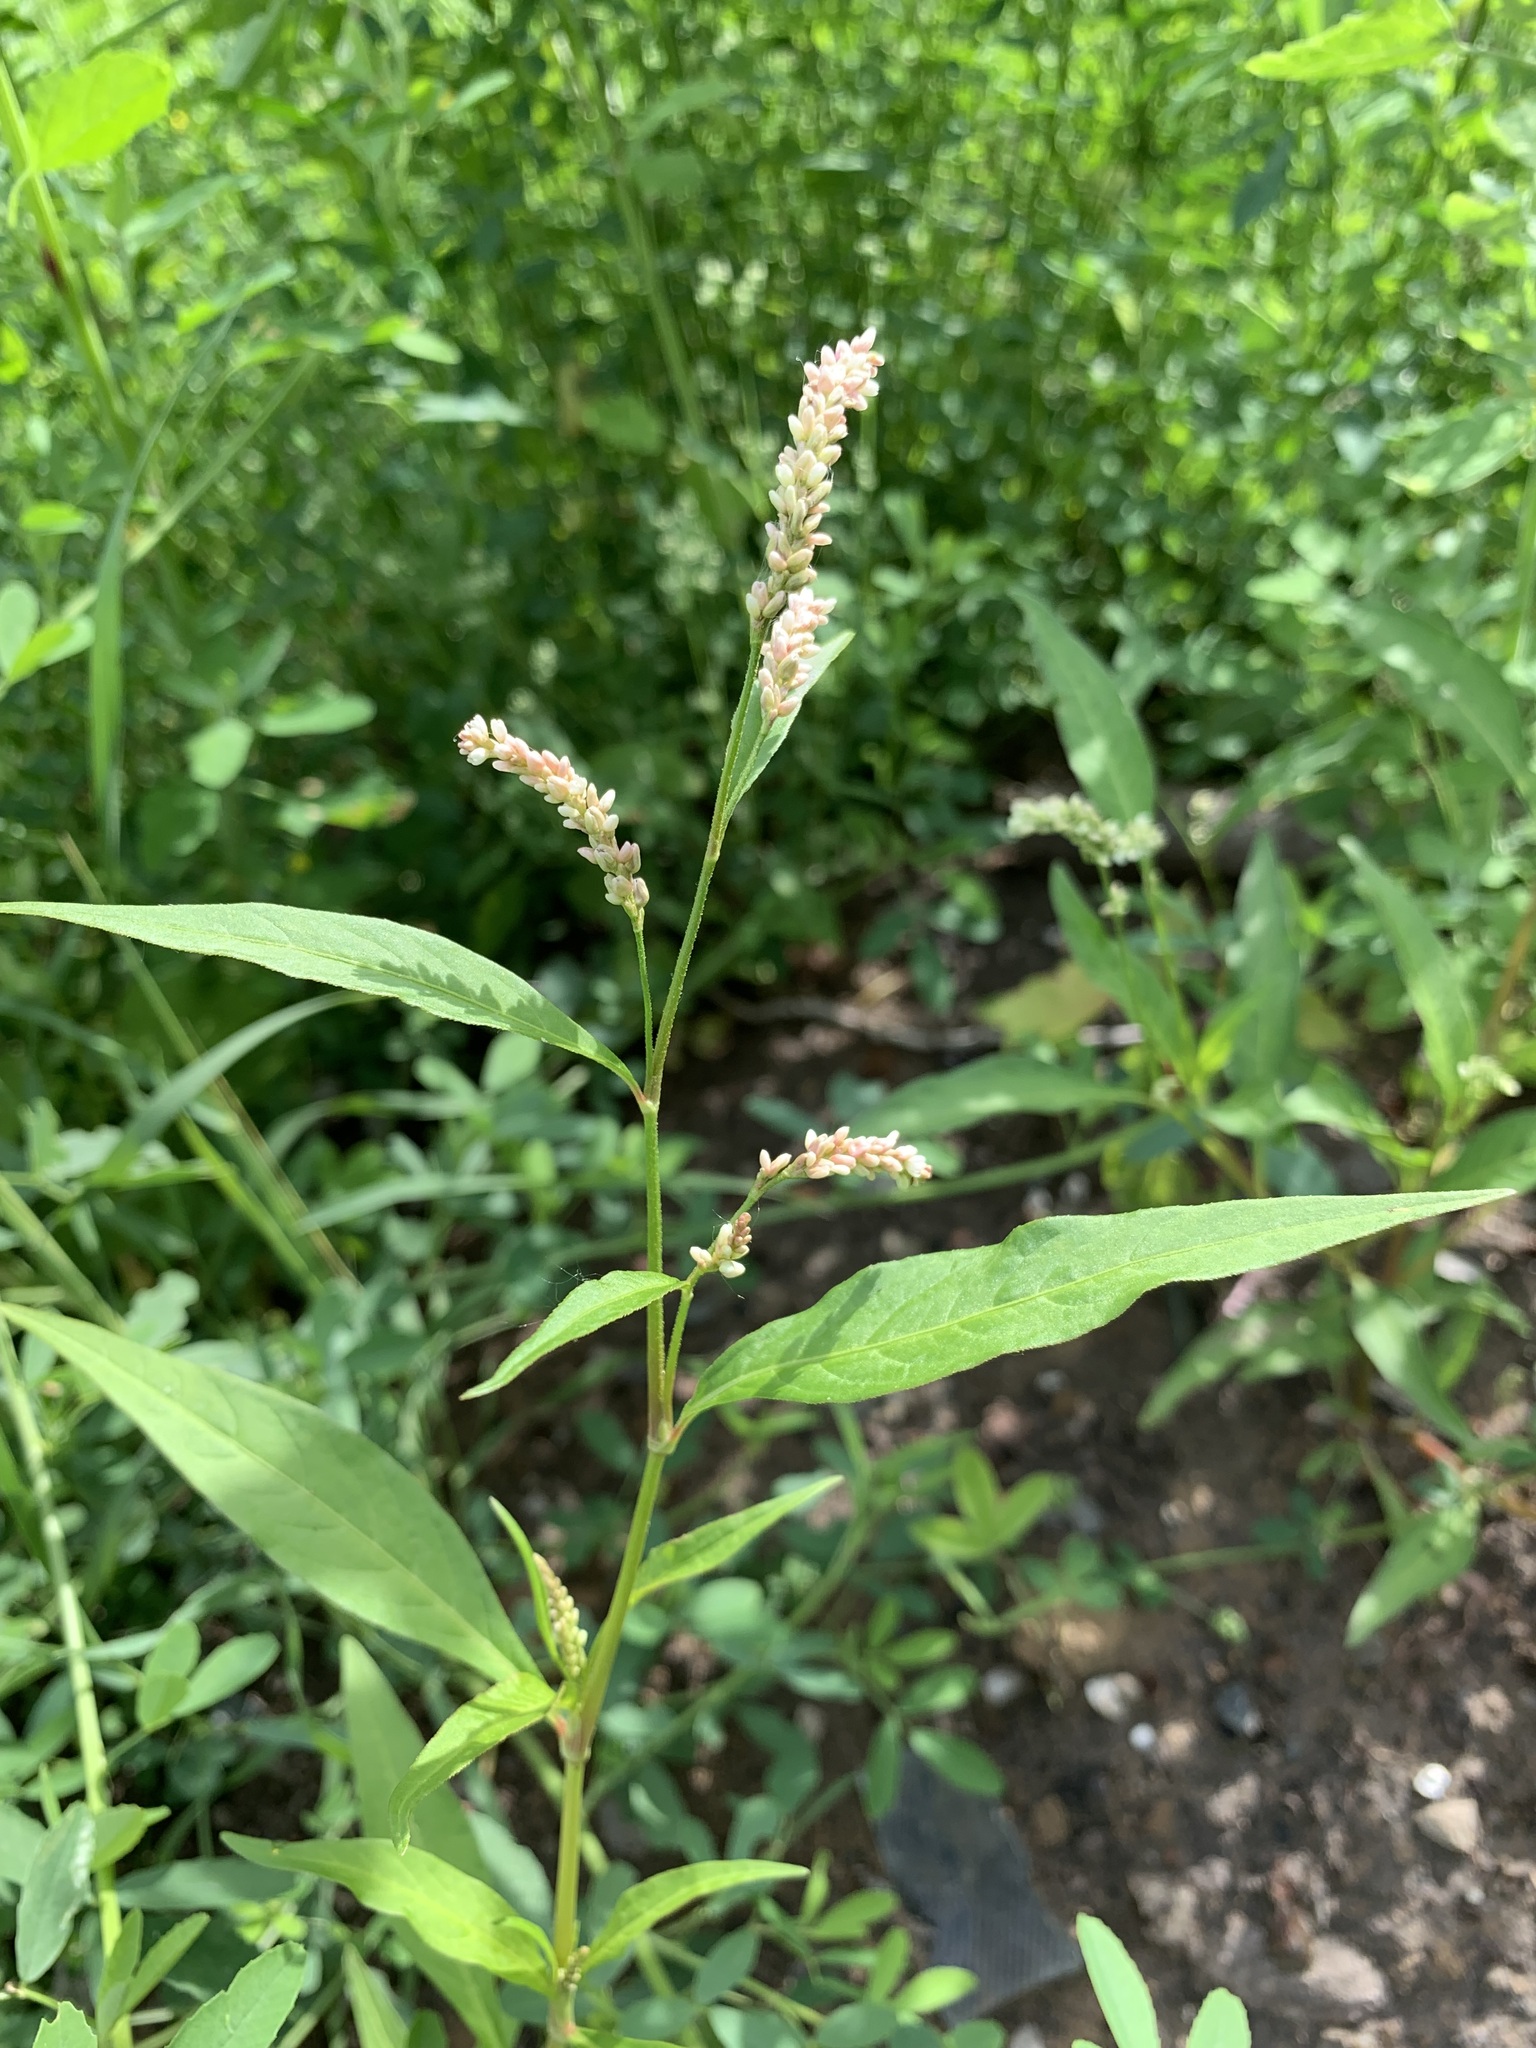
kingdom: Plantae
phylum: Tracheophyta
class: Magnoliopsida
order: Caryophyllales
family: Polygonaceae
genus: Persicaria
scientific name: Persicaria lapathifolia
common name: Curlytop knotweed
